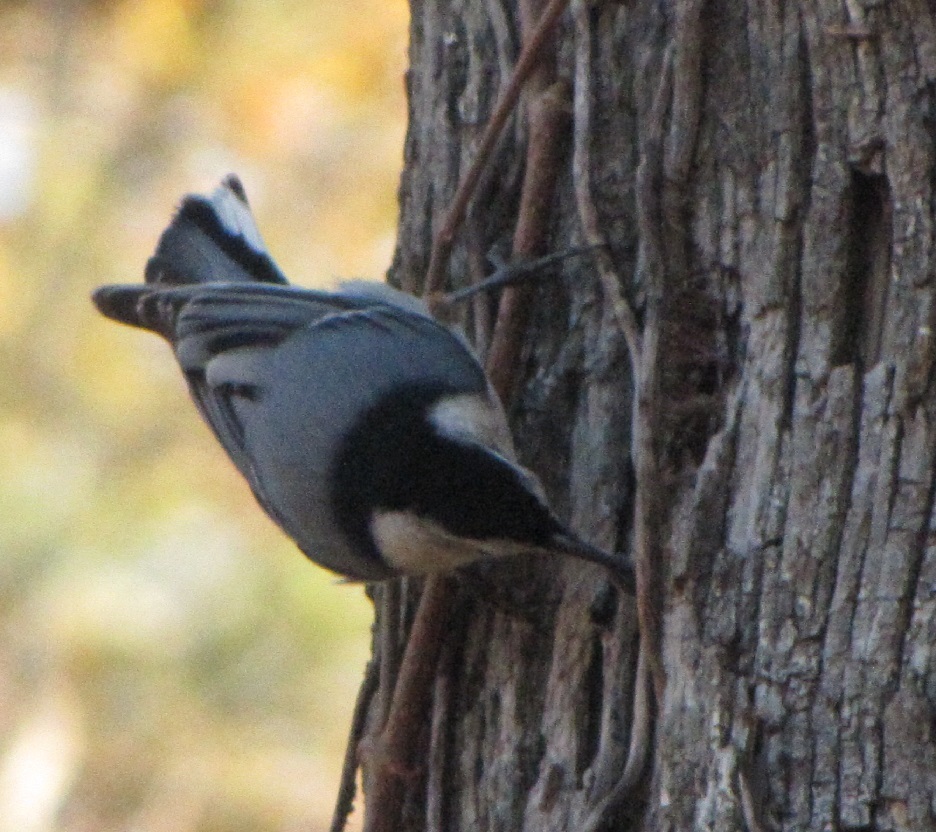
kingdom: Animalia
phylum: Chordata
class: Aves
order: Passeriformes
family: Sittidae
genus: Sitta
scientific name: Sitta carolinensis
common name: White-breasted nuthatch
